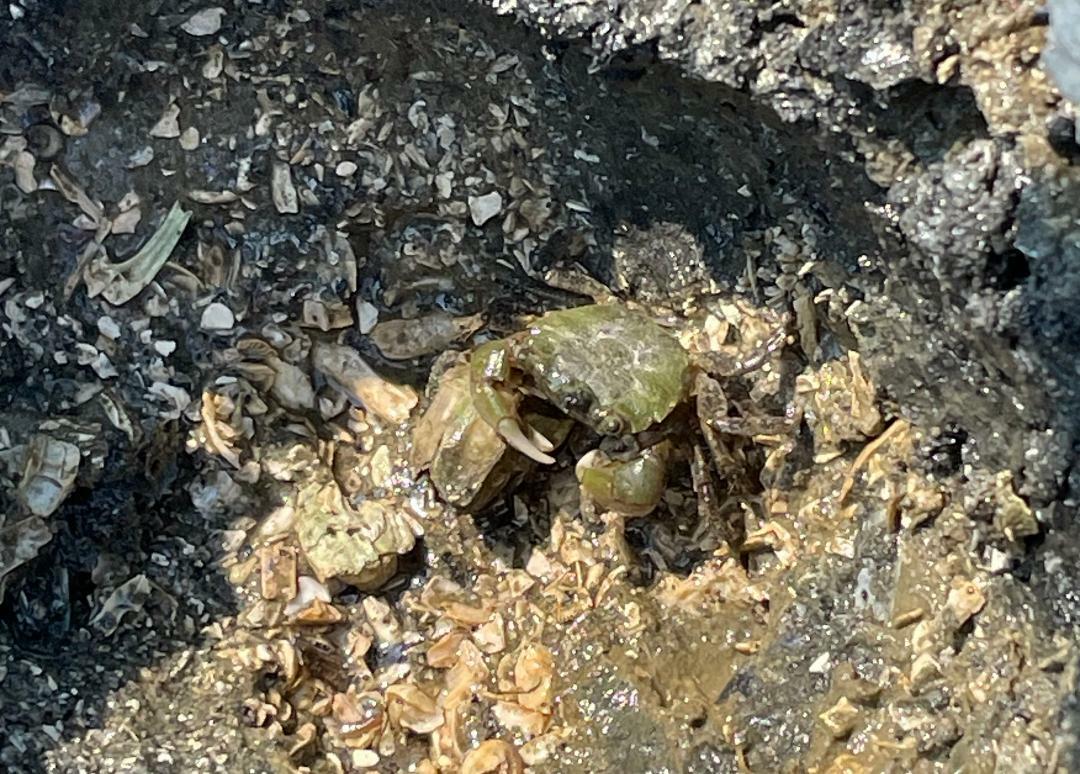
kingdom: Animalia
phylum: Arthropoda
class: Malacostraca
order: Decapoda
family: Varunidae
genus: Hemigrapsus
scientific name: Hemigrapsus oregonensis
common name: Yellow shore crab
